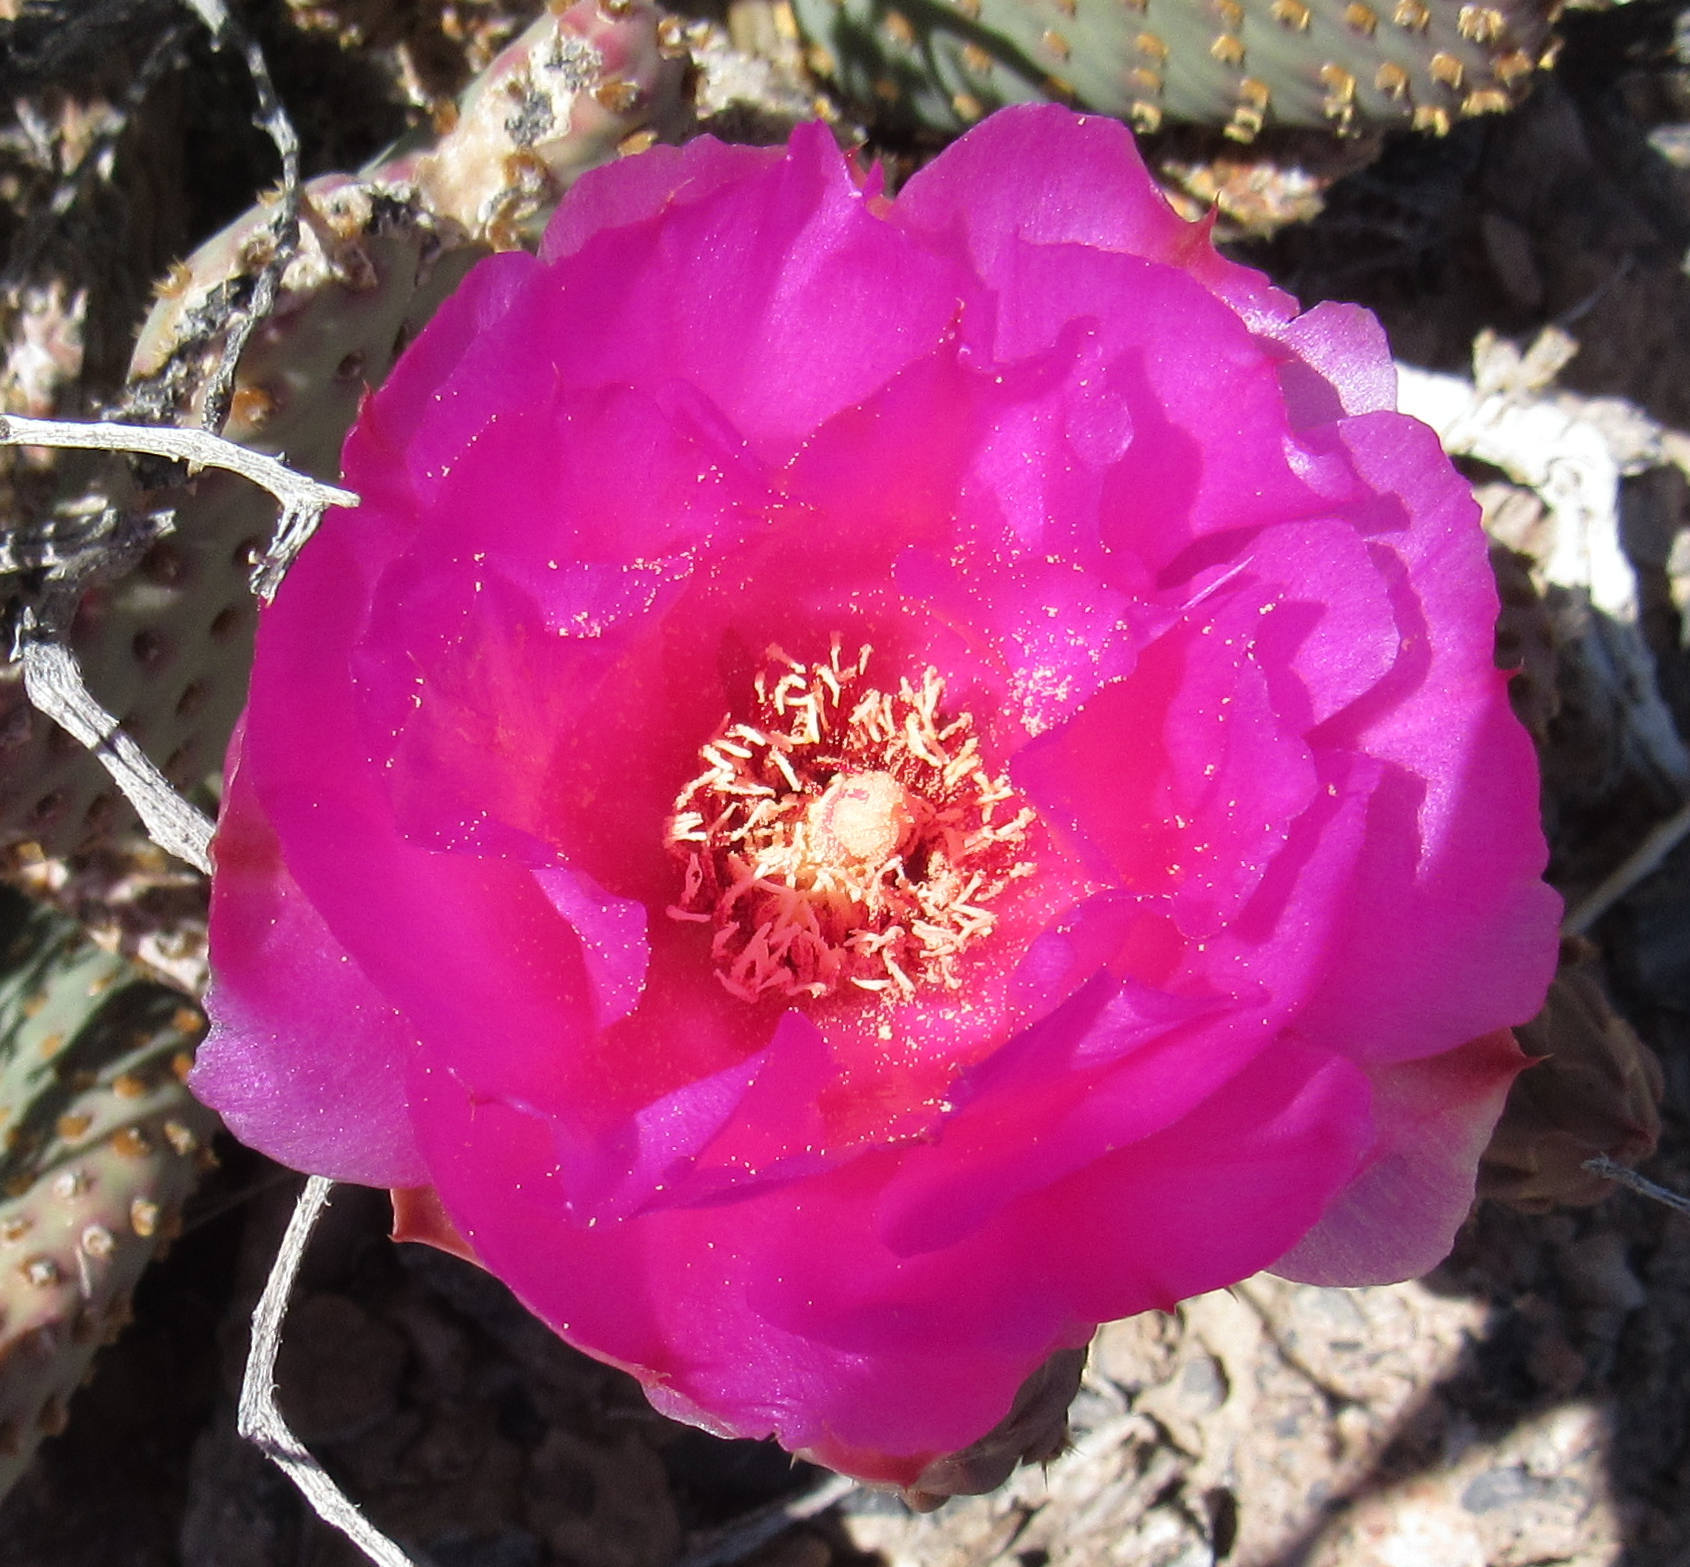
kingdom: Plantae
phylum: Tracheophyta
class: Magnoliopsida
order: Caryophyllales
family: Cactaceae
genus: Opuntia
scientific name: Opuntia basilaris
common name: Beavertail prickly-pear
